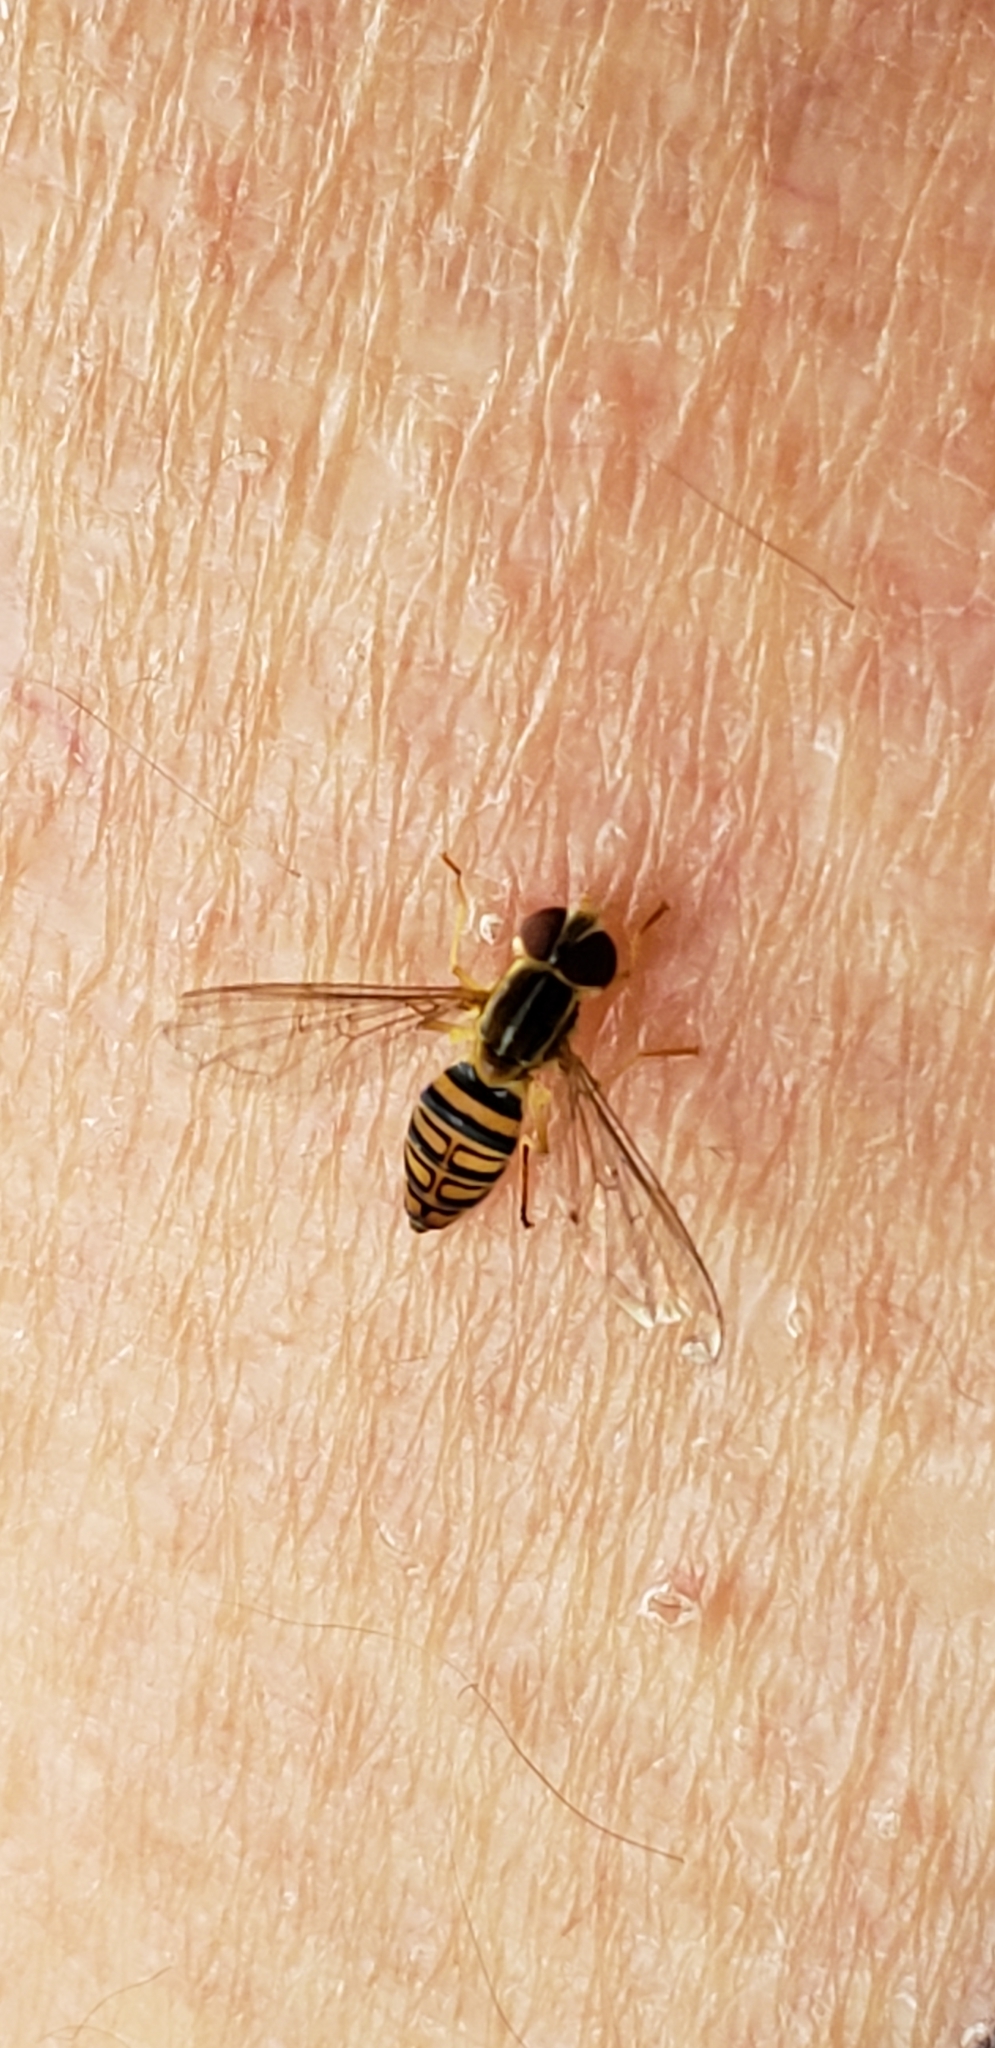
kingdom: Animalia
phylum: Arthropoda
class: Insecta
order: Diptera
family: Syrphidae
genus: Toxomerus
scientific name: Toxomerus politus
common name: Maize calligrapher
